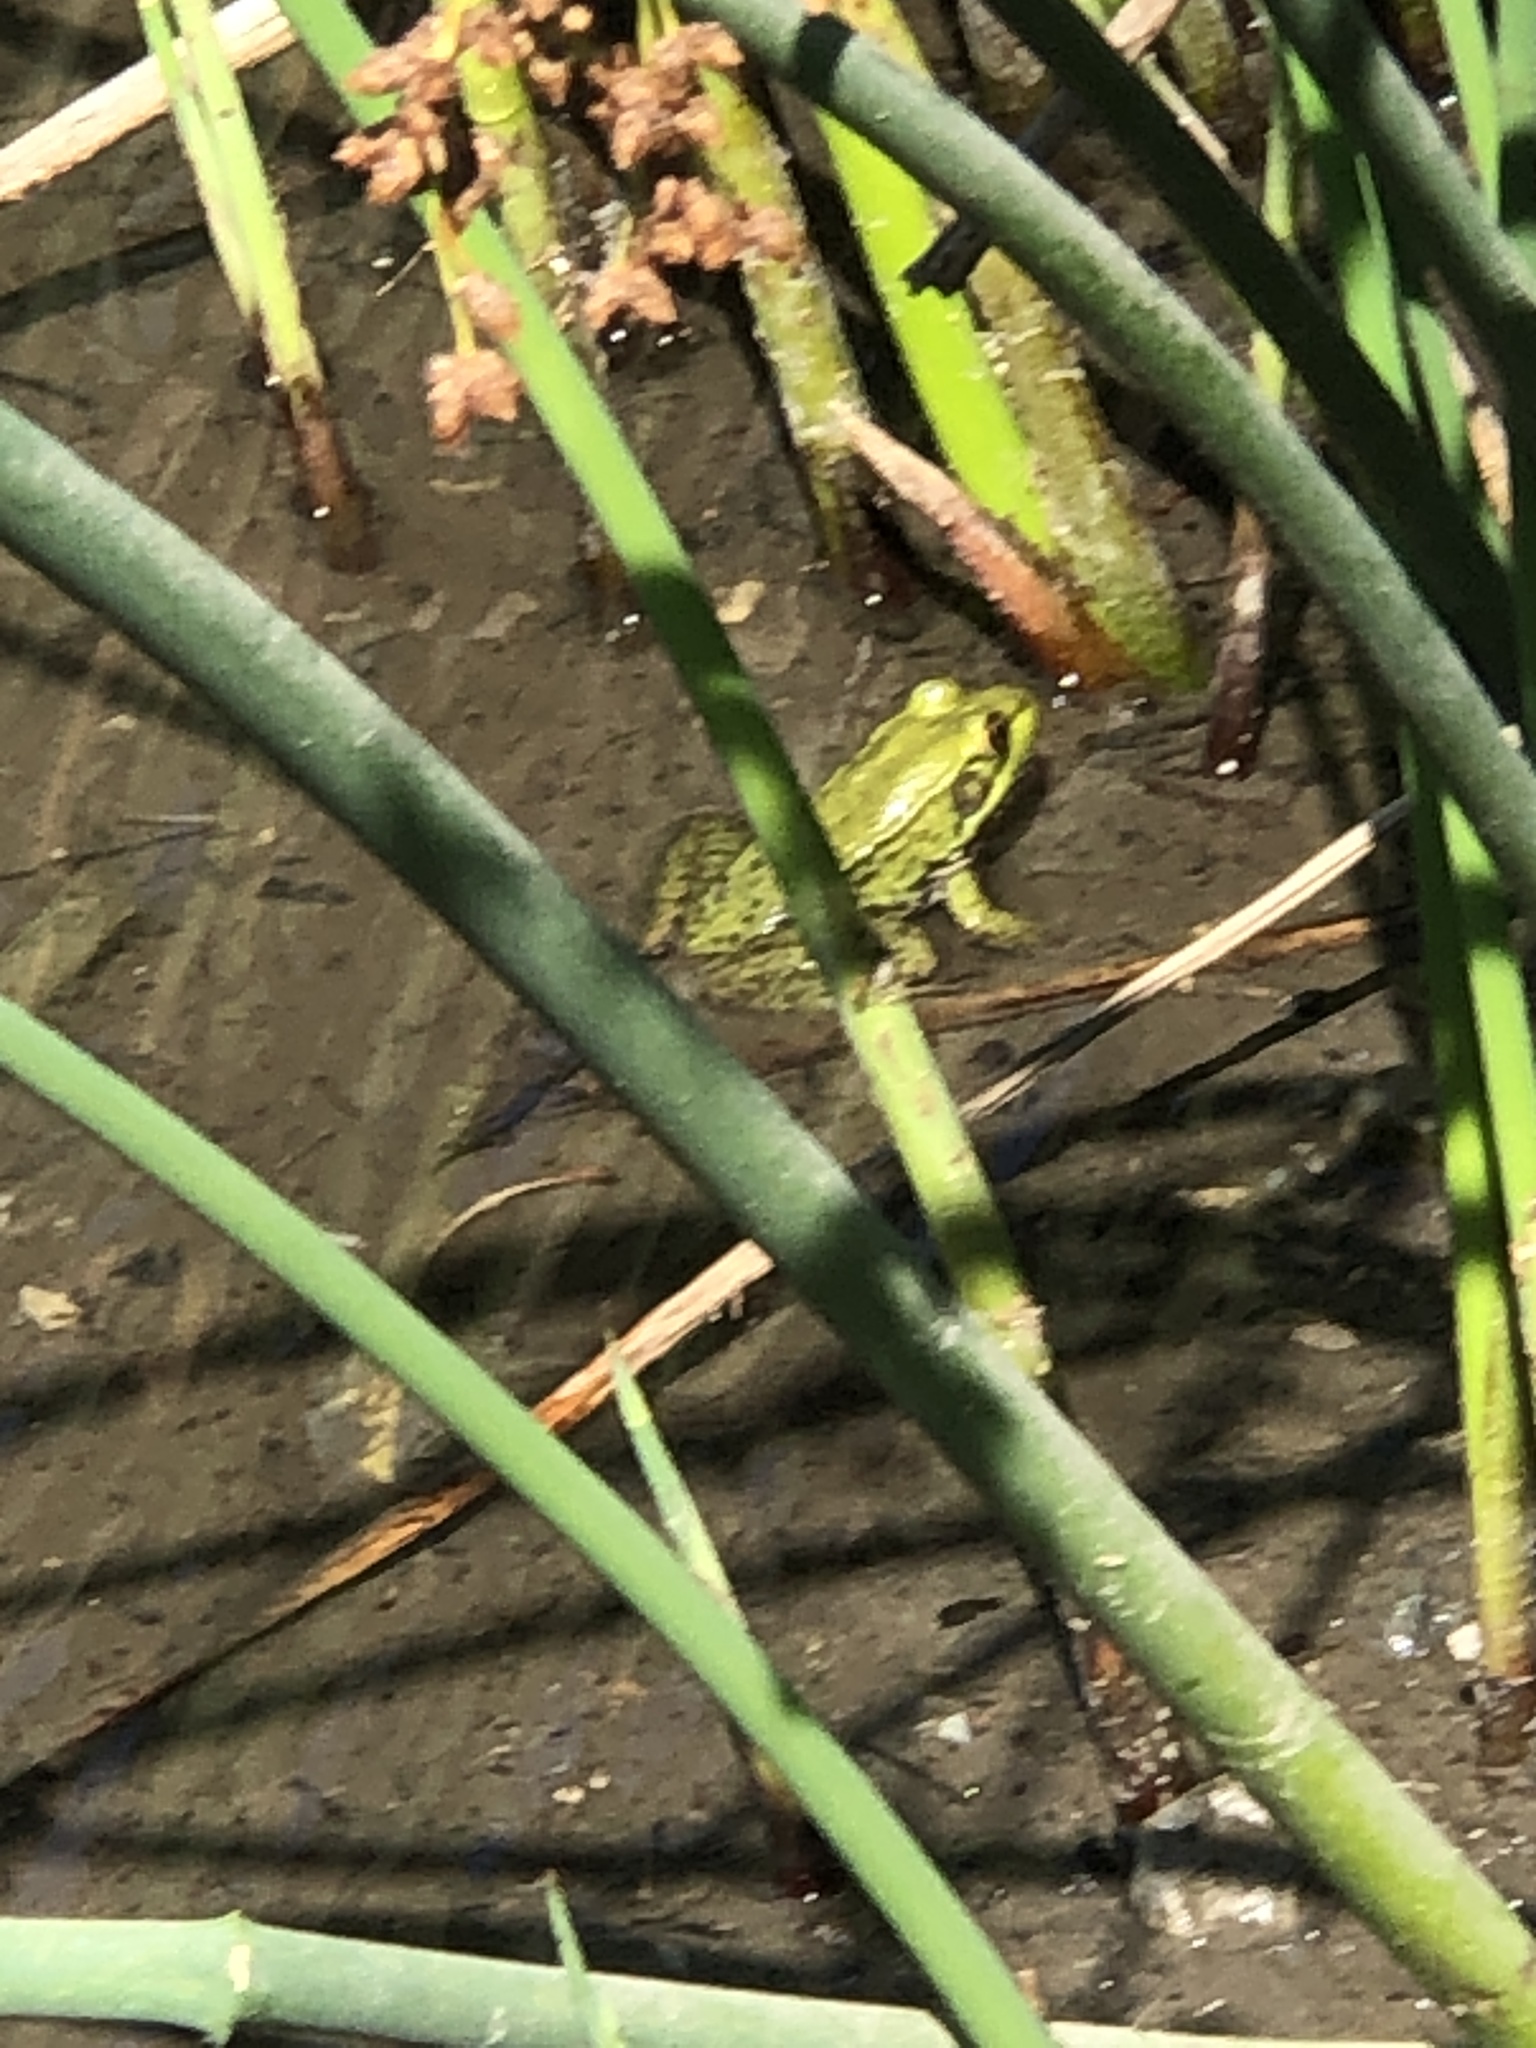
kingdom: Animalia
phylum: Chordata
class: Amphibia
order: Anura
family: Ranidae
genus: Lithobates
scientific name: Lithobates clamitans
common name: Green frog
